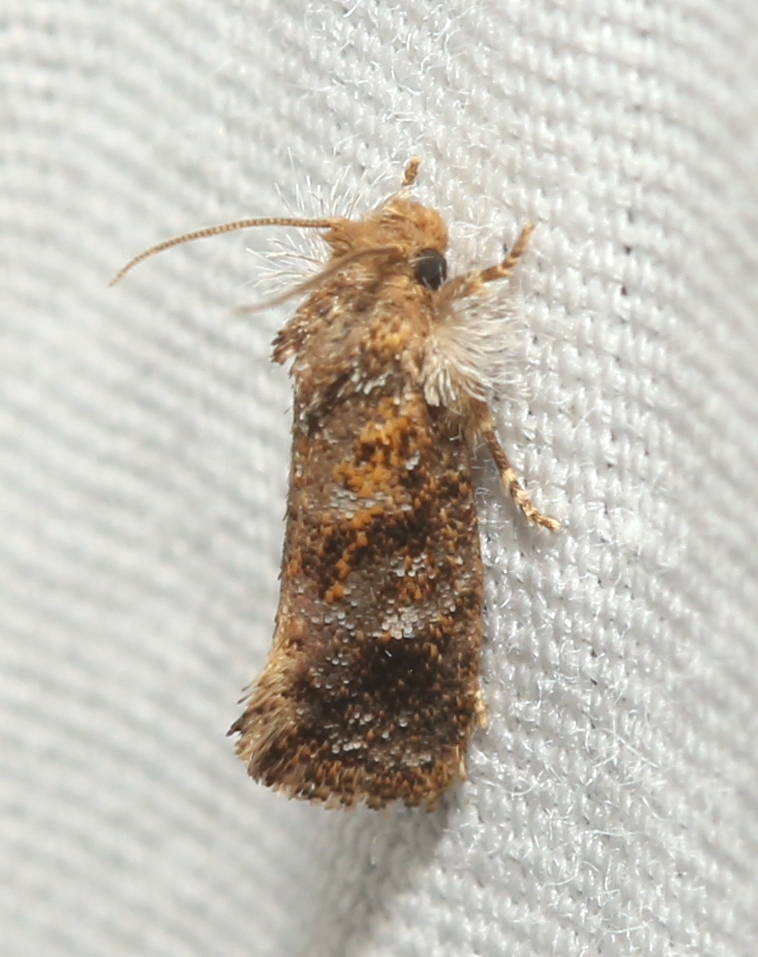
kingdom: Animalia
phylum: Arthropoda
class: Insecta
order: Lepidoptera
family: Tineidae
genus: Acrolophus
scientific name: Acrolophus panamae
